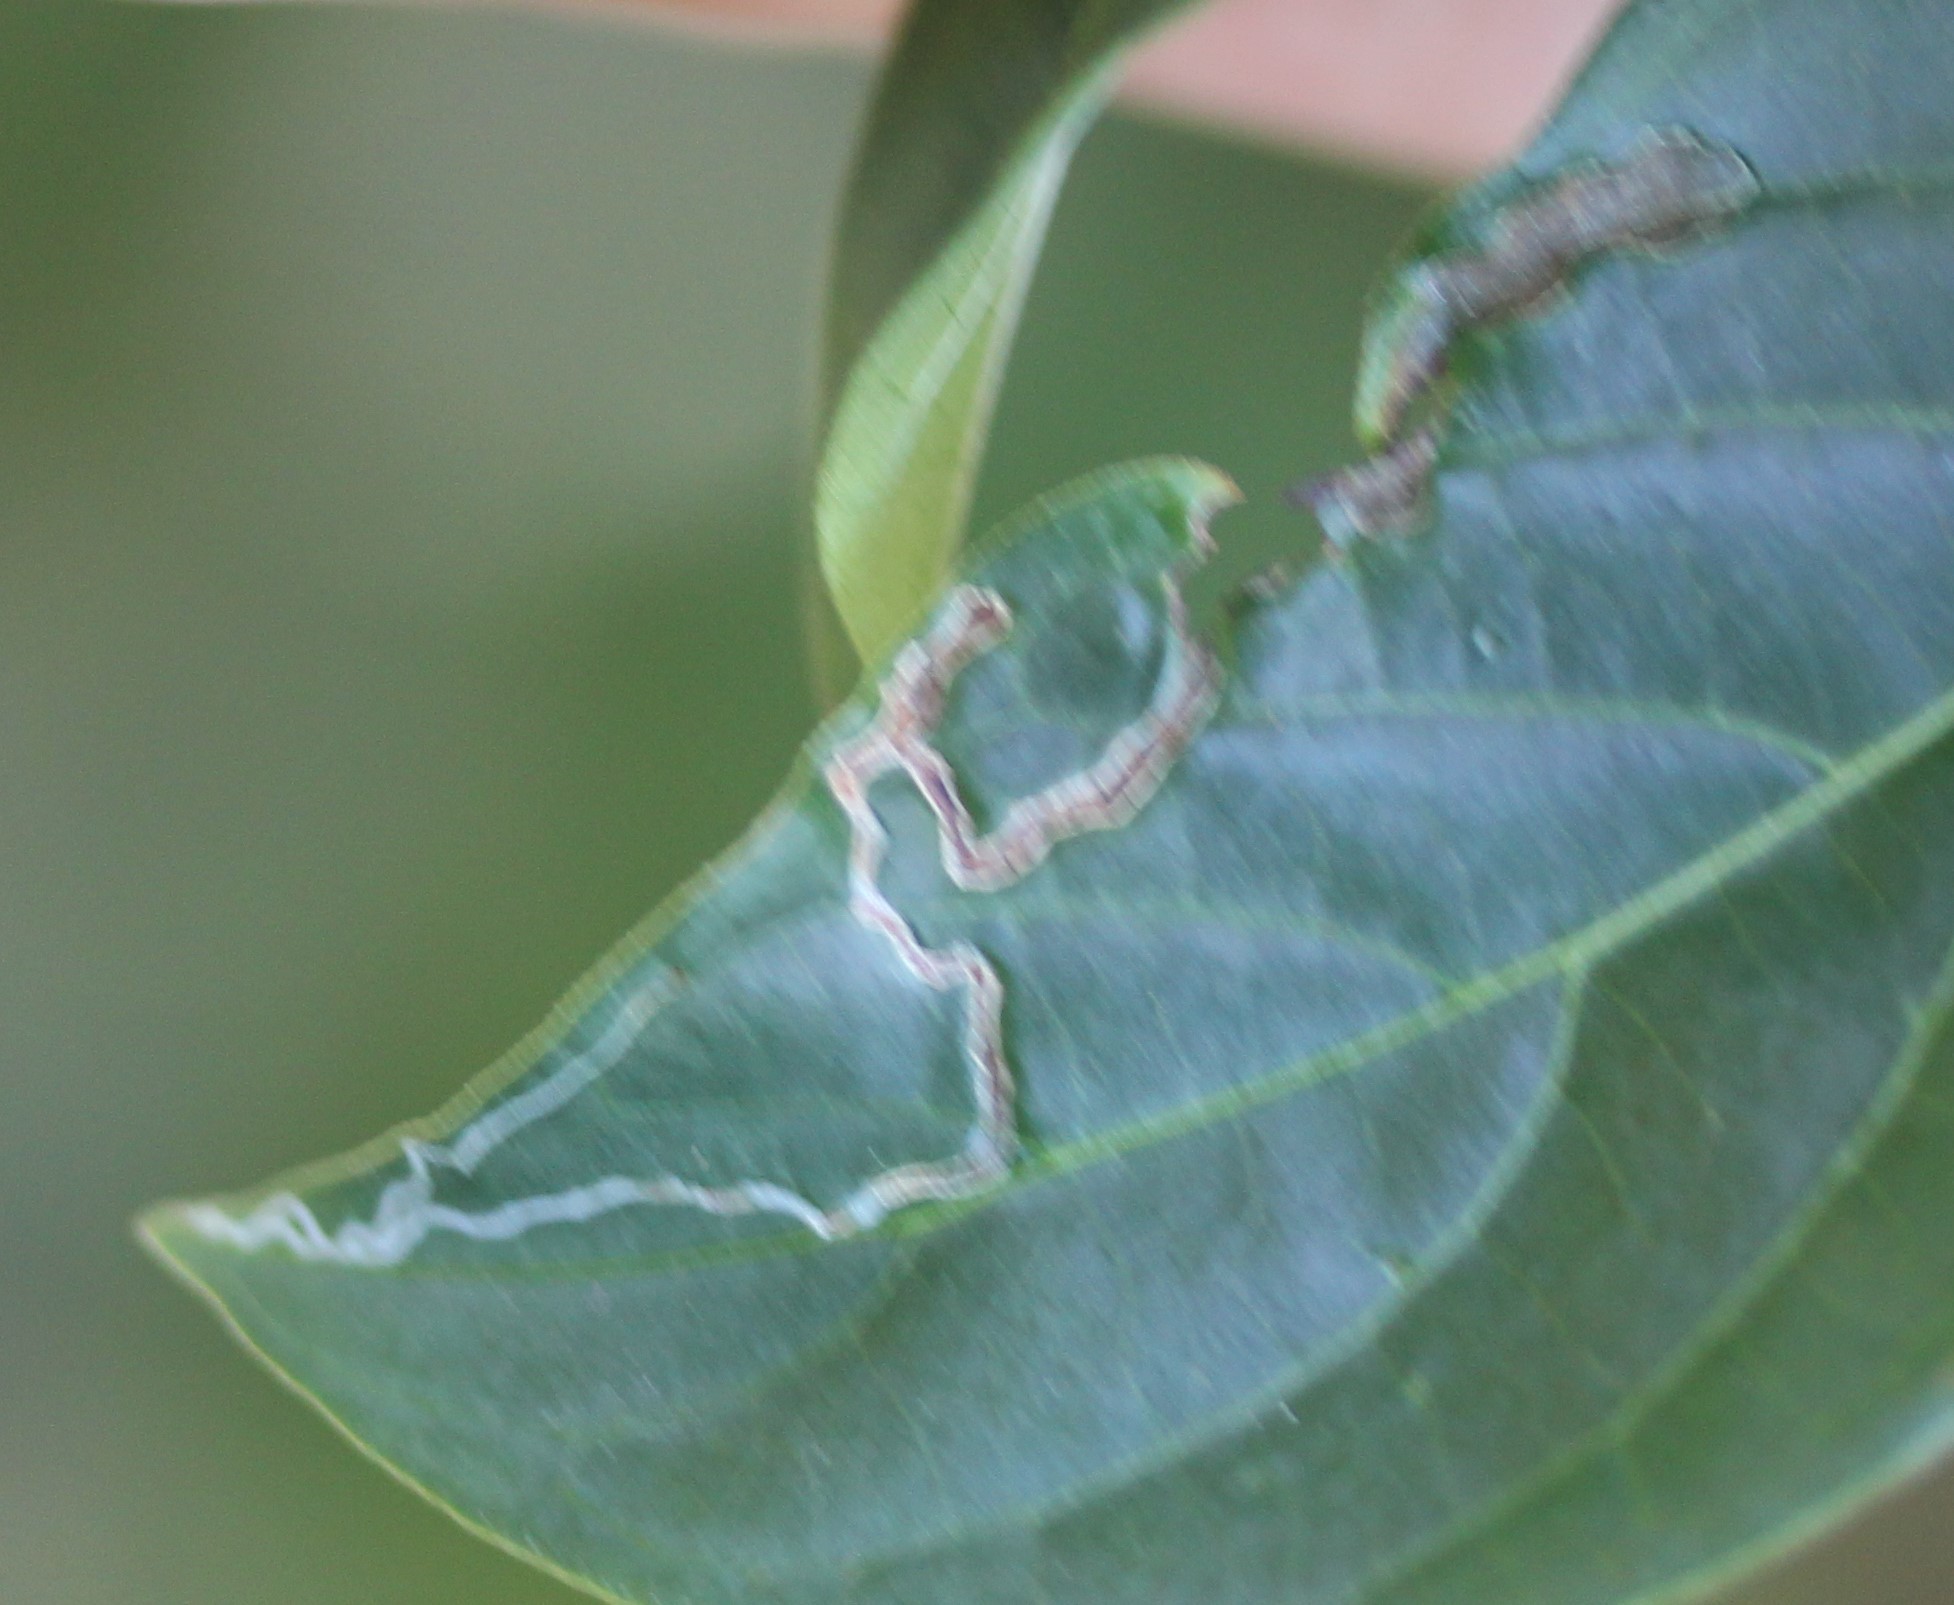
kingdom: Animalia
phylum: Arthropoda
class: Insecta
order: Diptera
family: Agromyzidae
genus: Liriomyza
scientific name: Liriomyza schmidti
